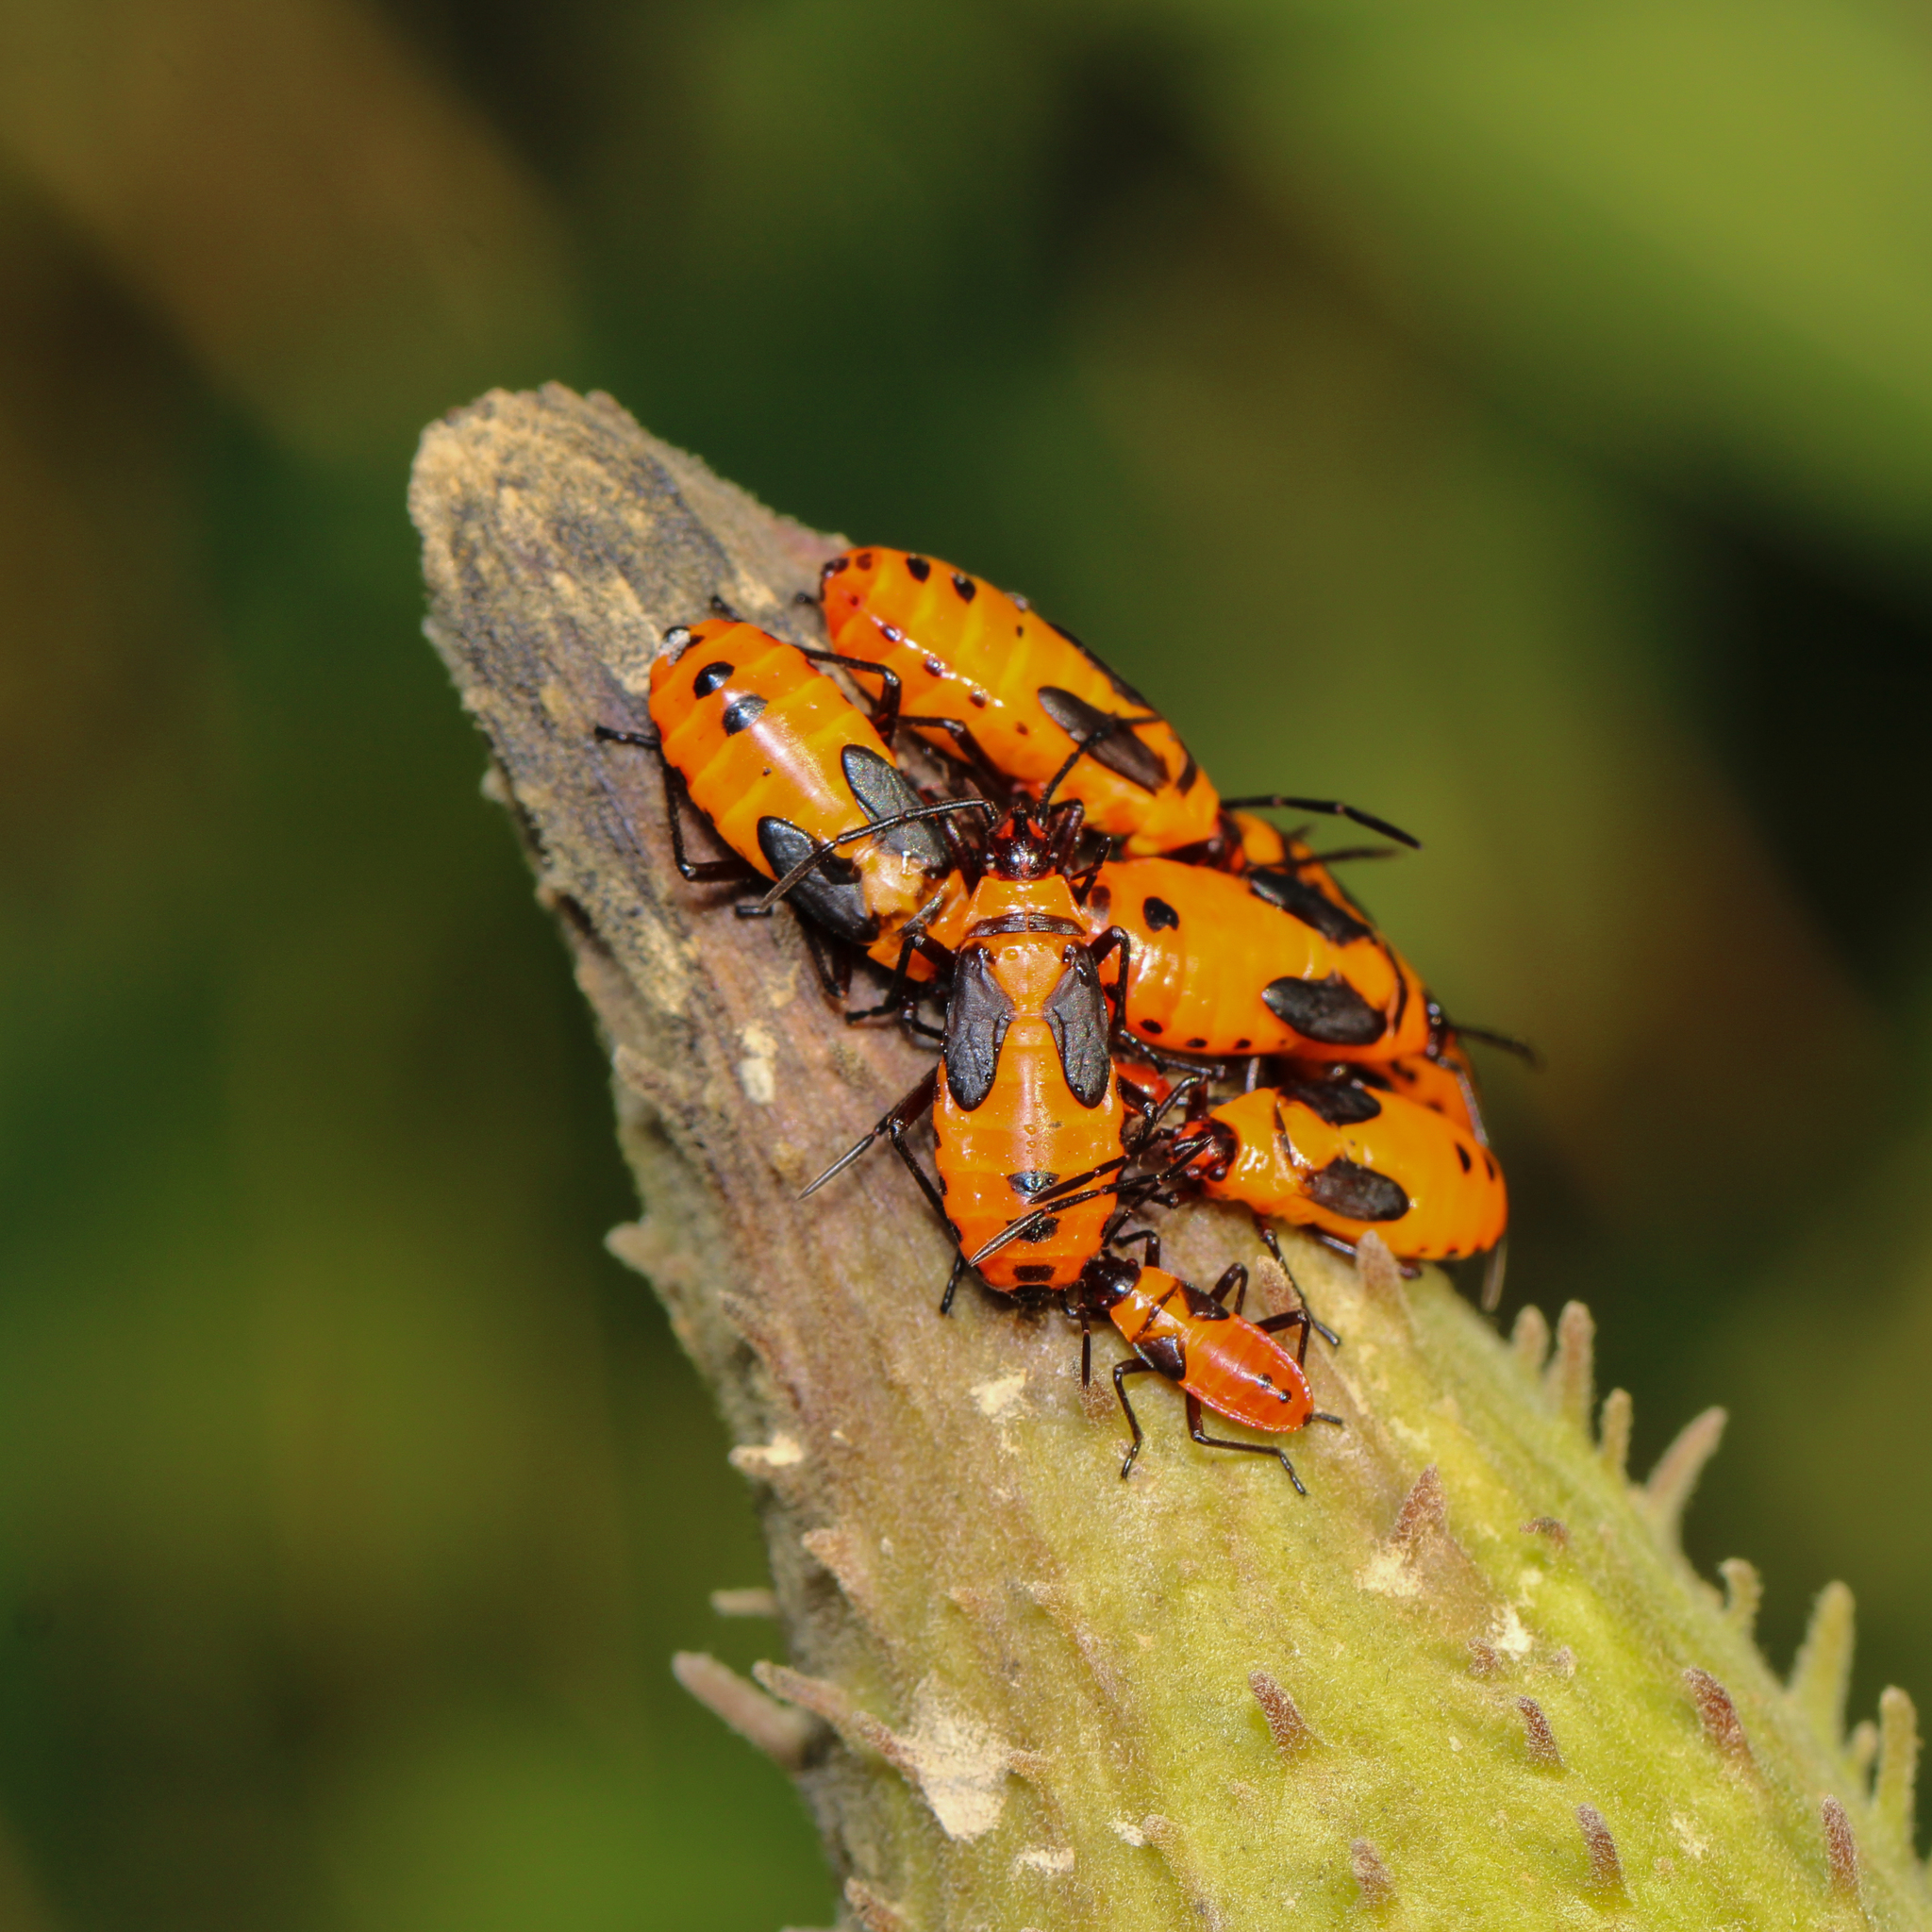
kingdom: Animalia
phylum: Arthropoda
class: Insecta
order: Hemiptera
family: Lygaeidae
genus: Oncopeltus
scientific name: Oncopeltus fasciatus
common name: Large milkweed bug
